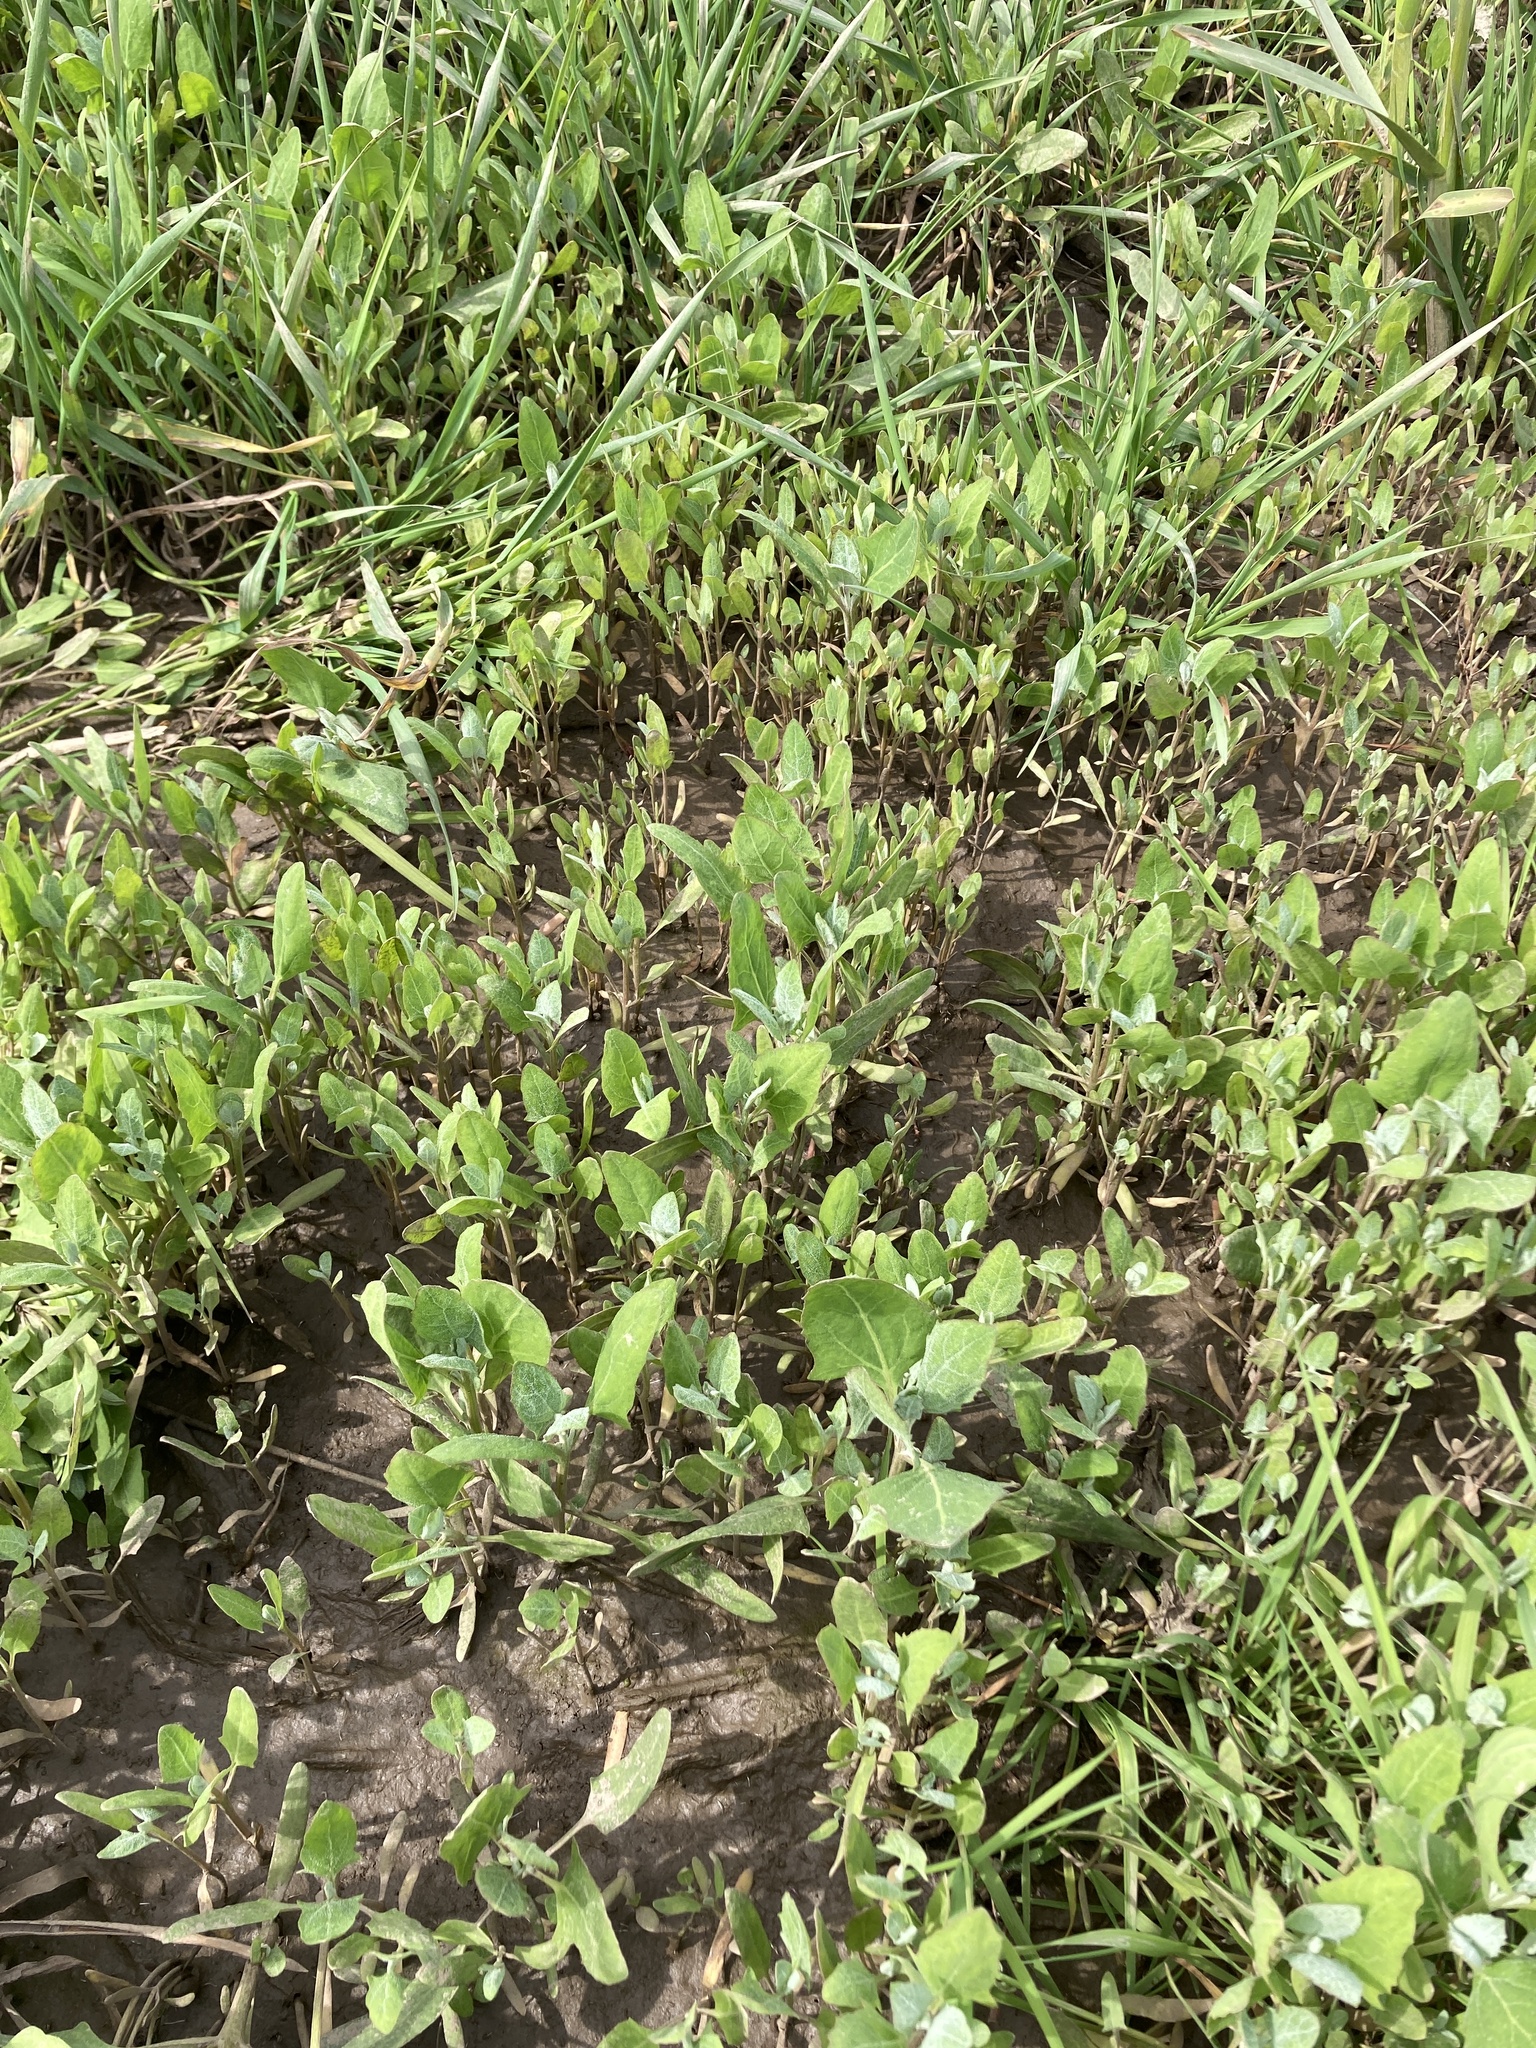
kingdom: Plantae
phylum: Tracheophyta
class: Magnoliopsida
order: Caryophyllales
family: Amaranthaceae
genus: Chenopodium
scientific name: Chenopodium album
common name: Fat-hen
